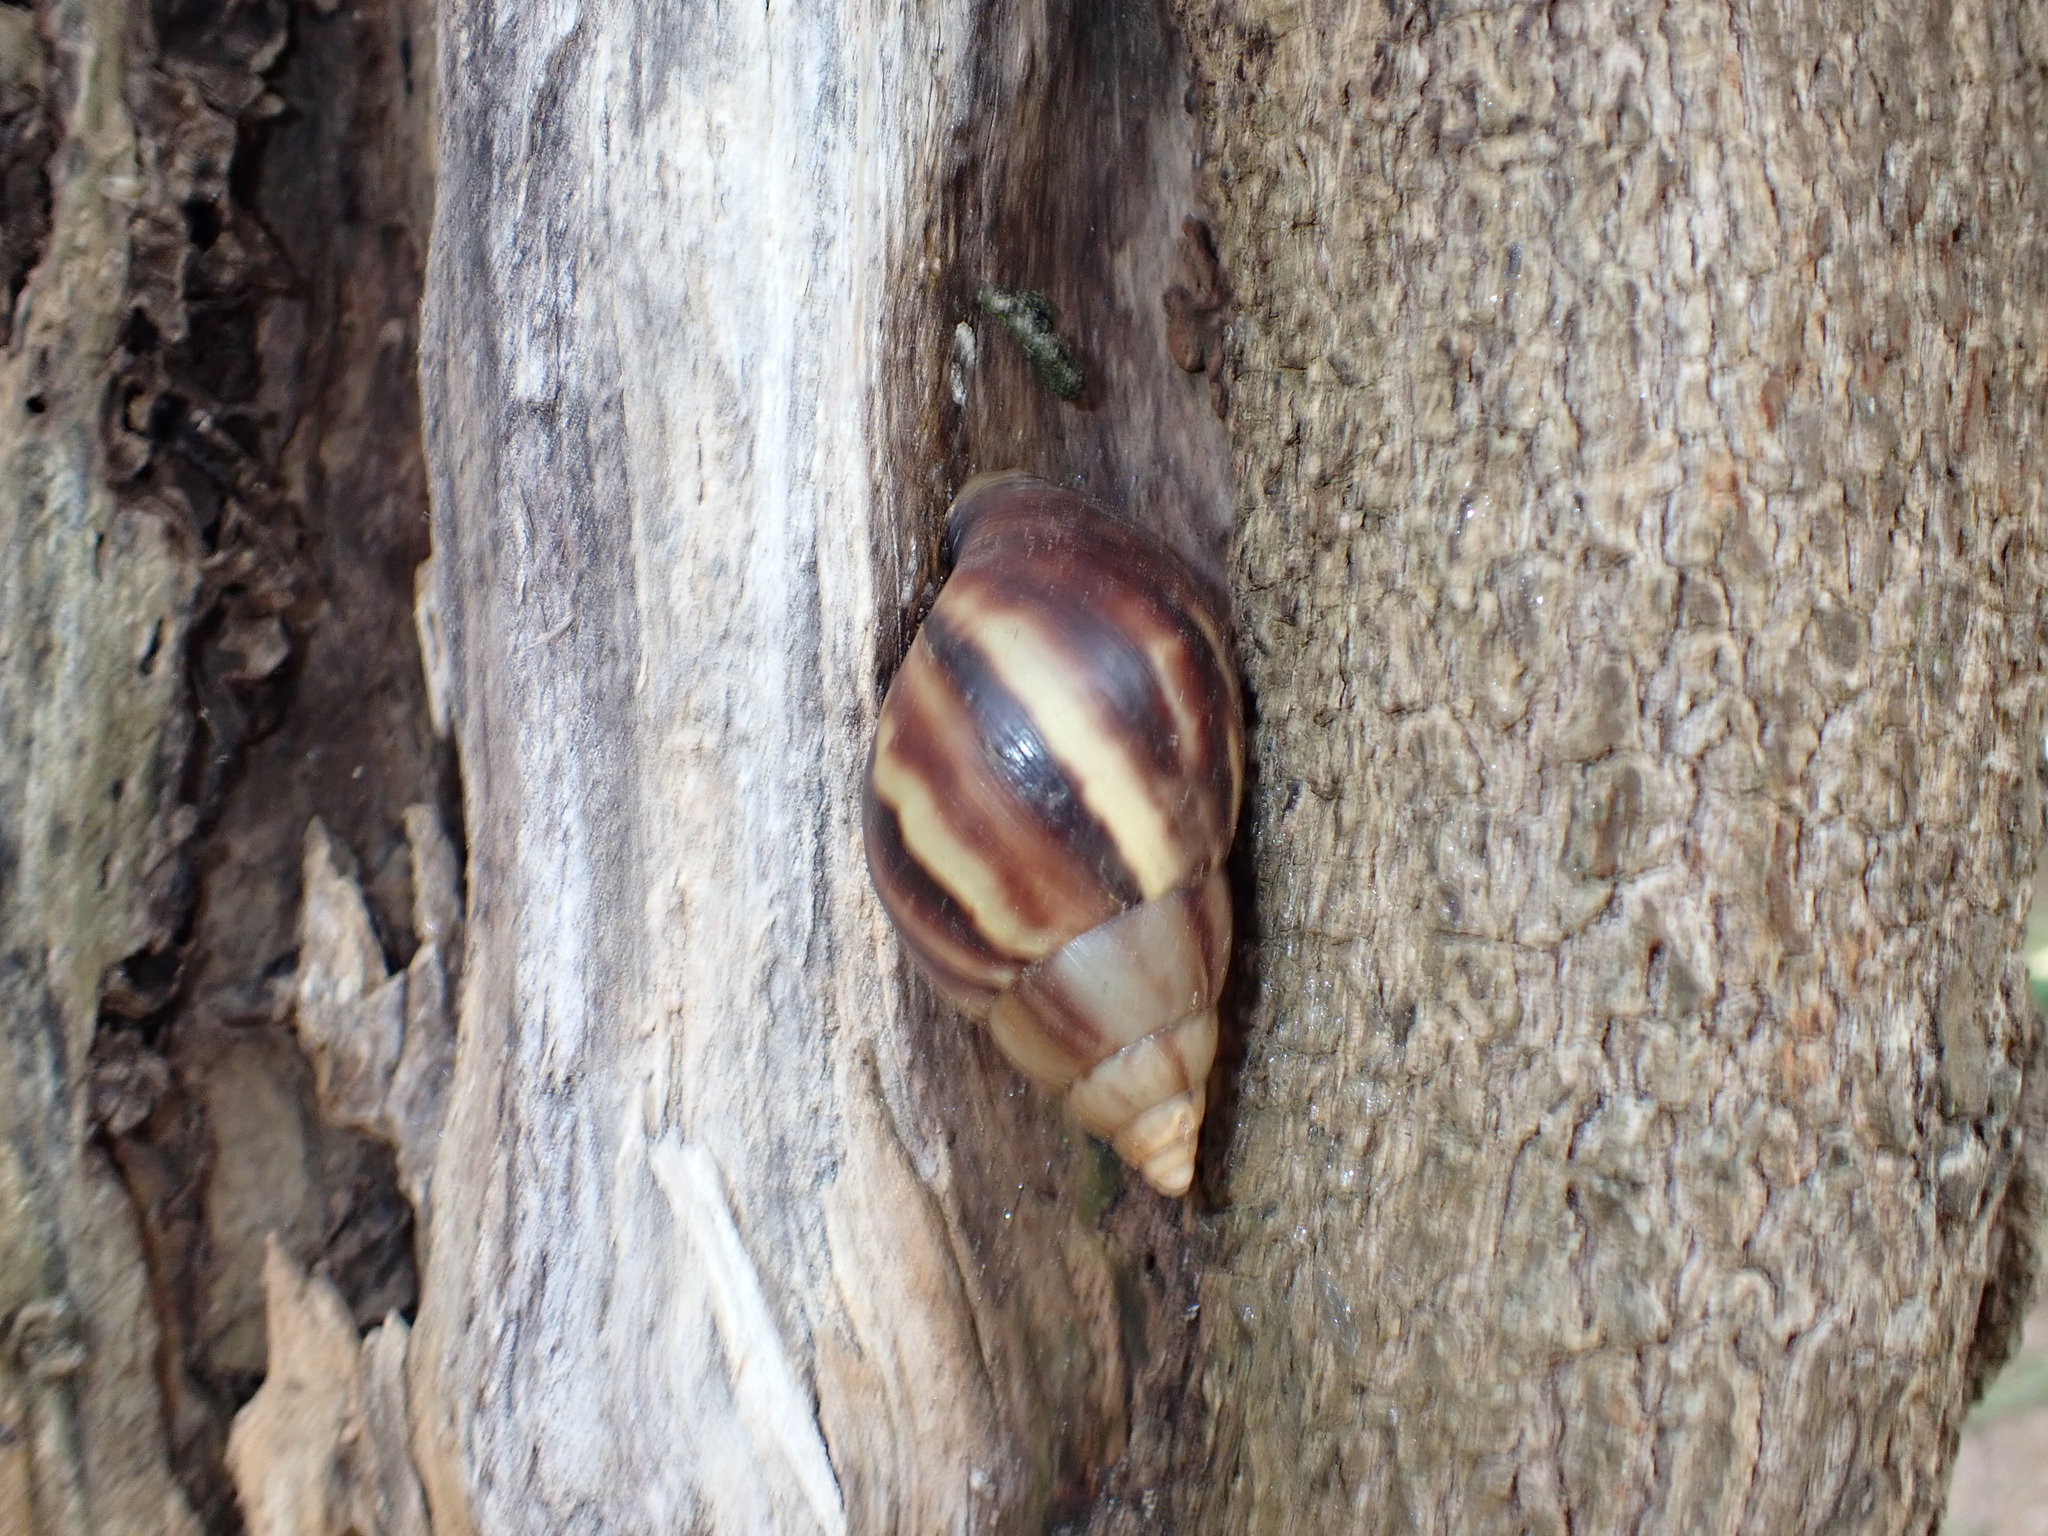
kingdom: Animalia
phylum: Mollusca
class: Gastropoda
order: Stylommatophora
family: Achatinidae
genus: Lissachatina
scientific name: Lissachatina fulica
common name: Giant african snail
